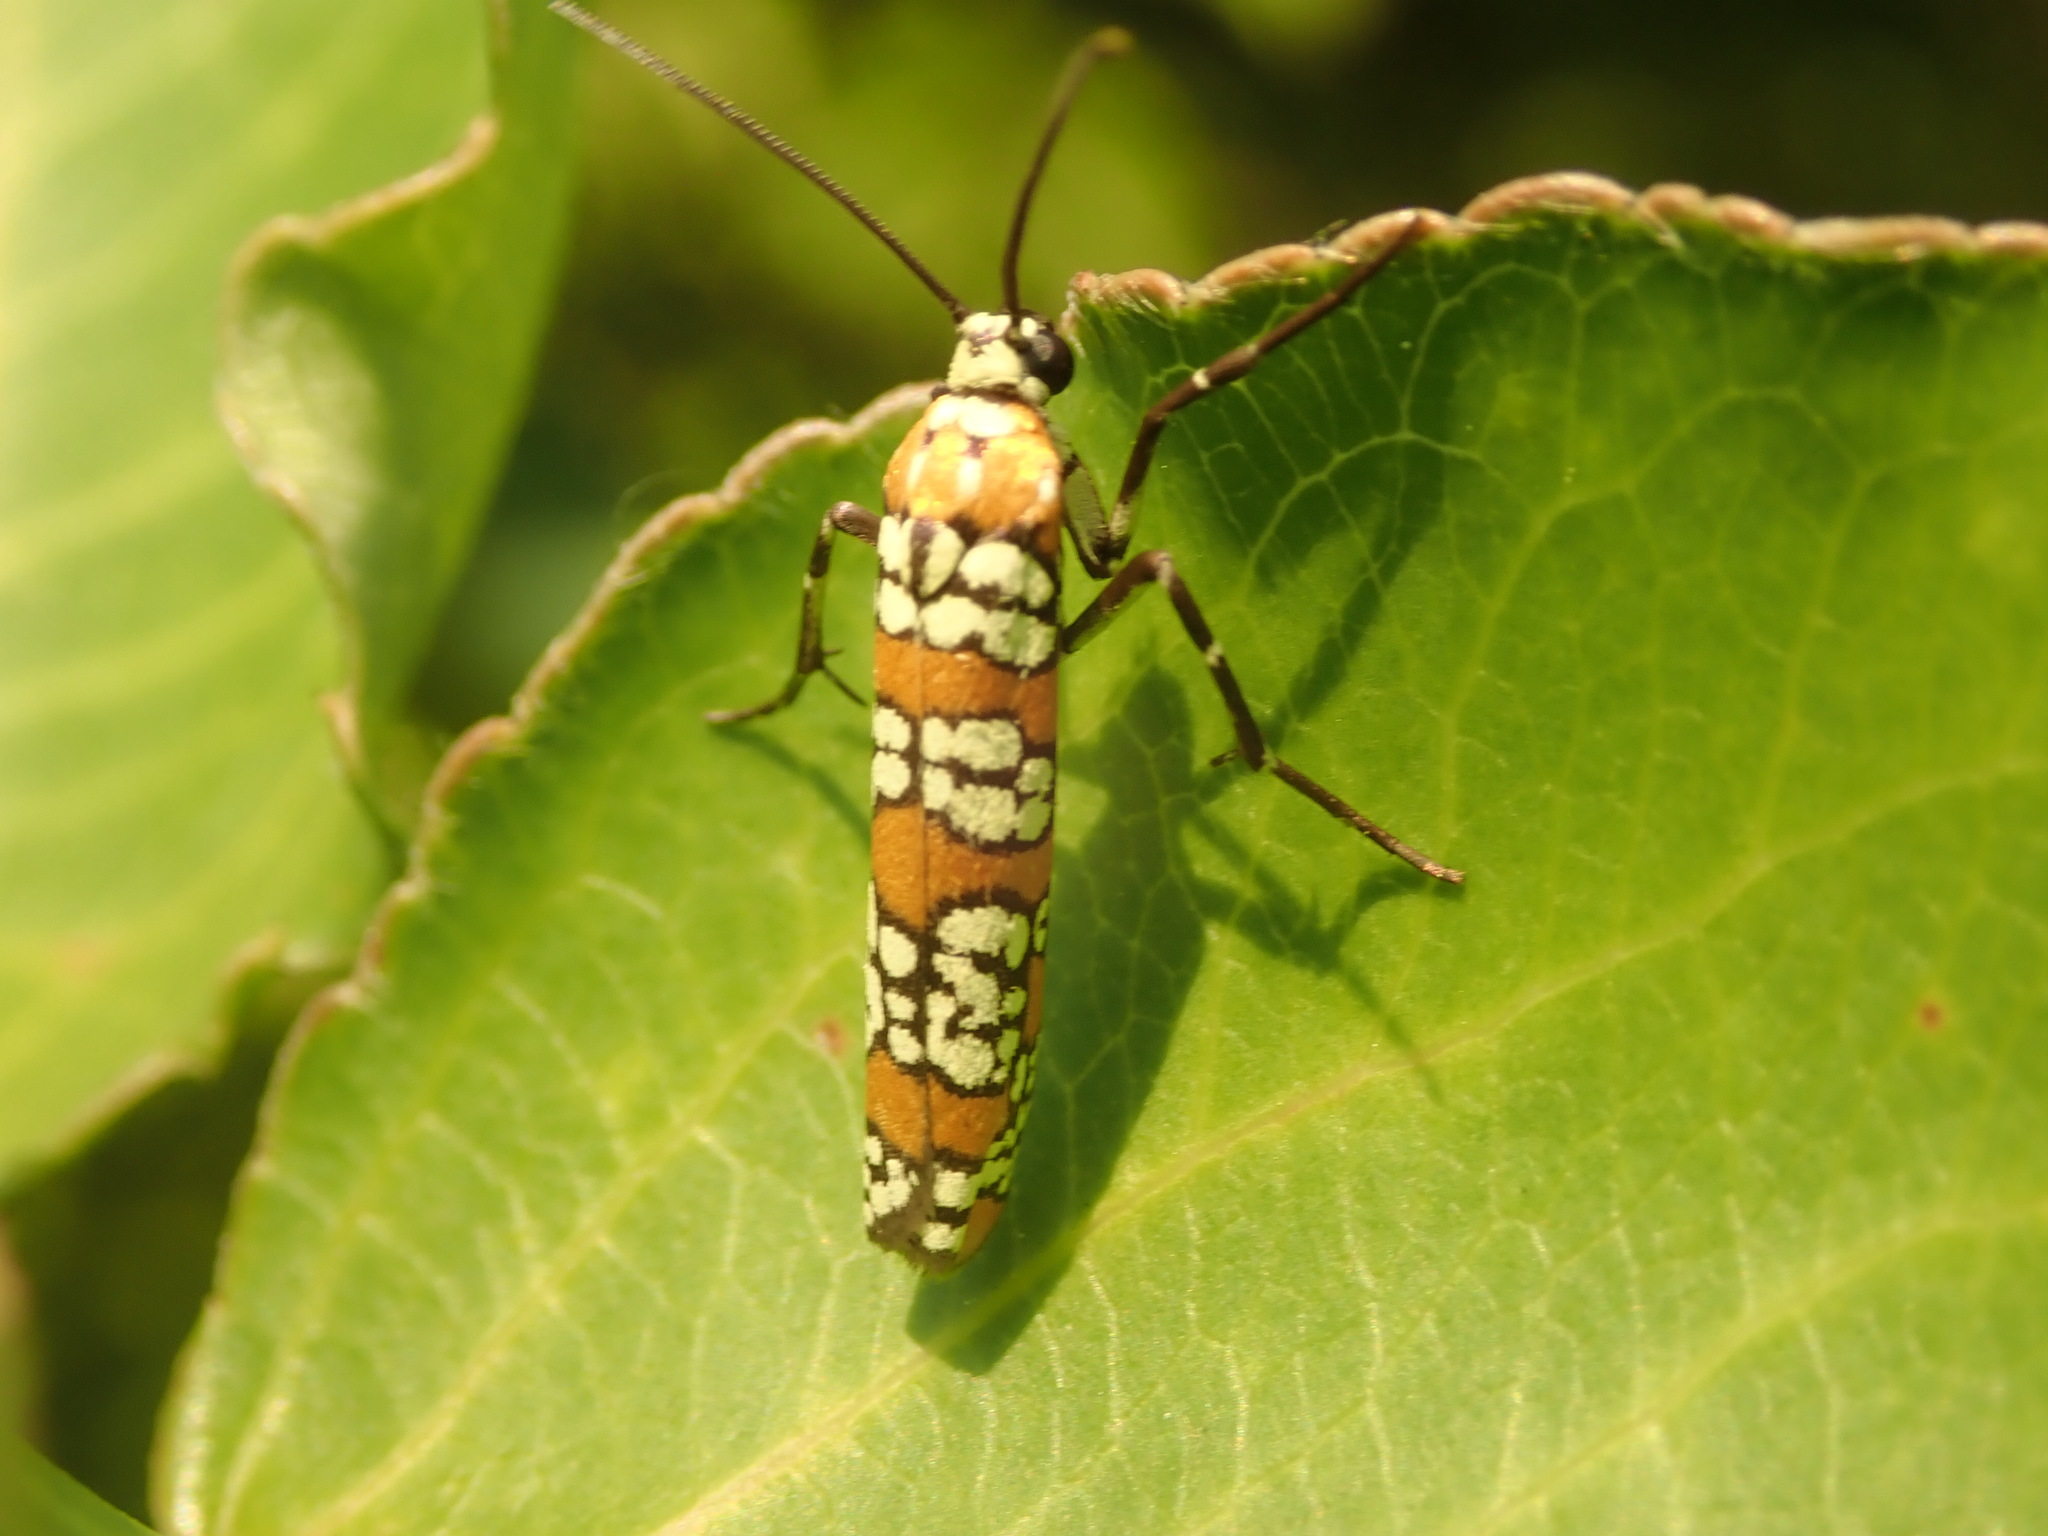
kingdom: Animalia
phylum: Arthropoda
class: Insecta
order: Lepidoptera
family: Attevidae
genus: Atteva
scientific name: Atteva punctella
